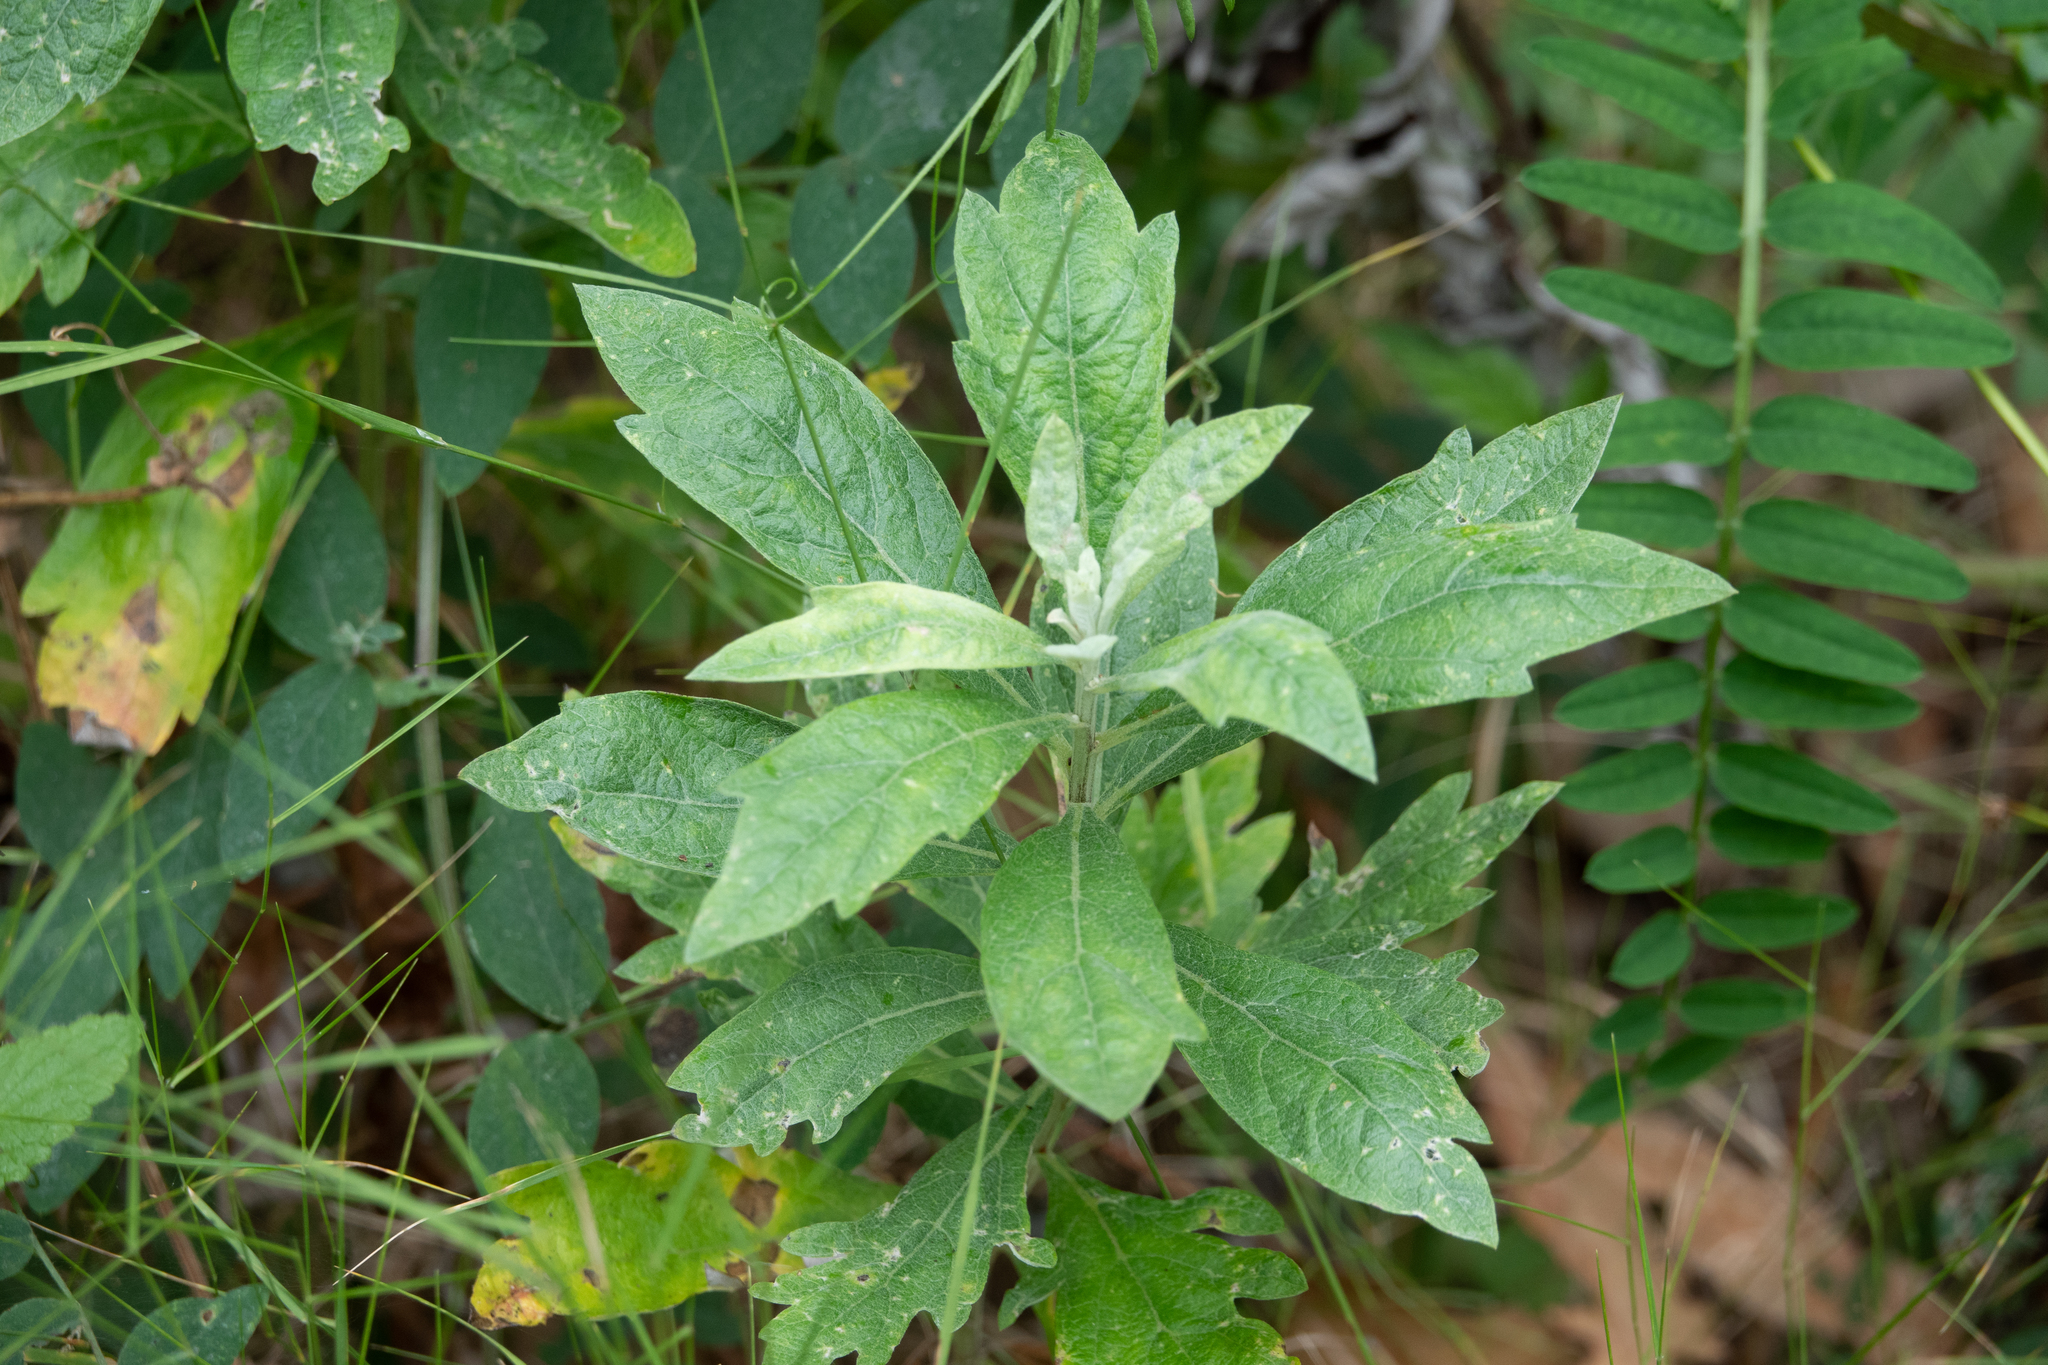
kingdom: Plantae
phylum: Tracheophyta
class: Magnoliopsida
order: Asterales
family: Asteraceae
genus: Artemisia
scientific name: Artemisia douglasiana
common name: Northwest mugwort
